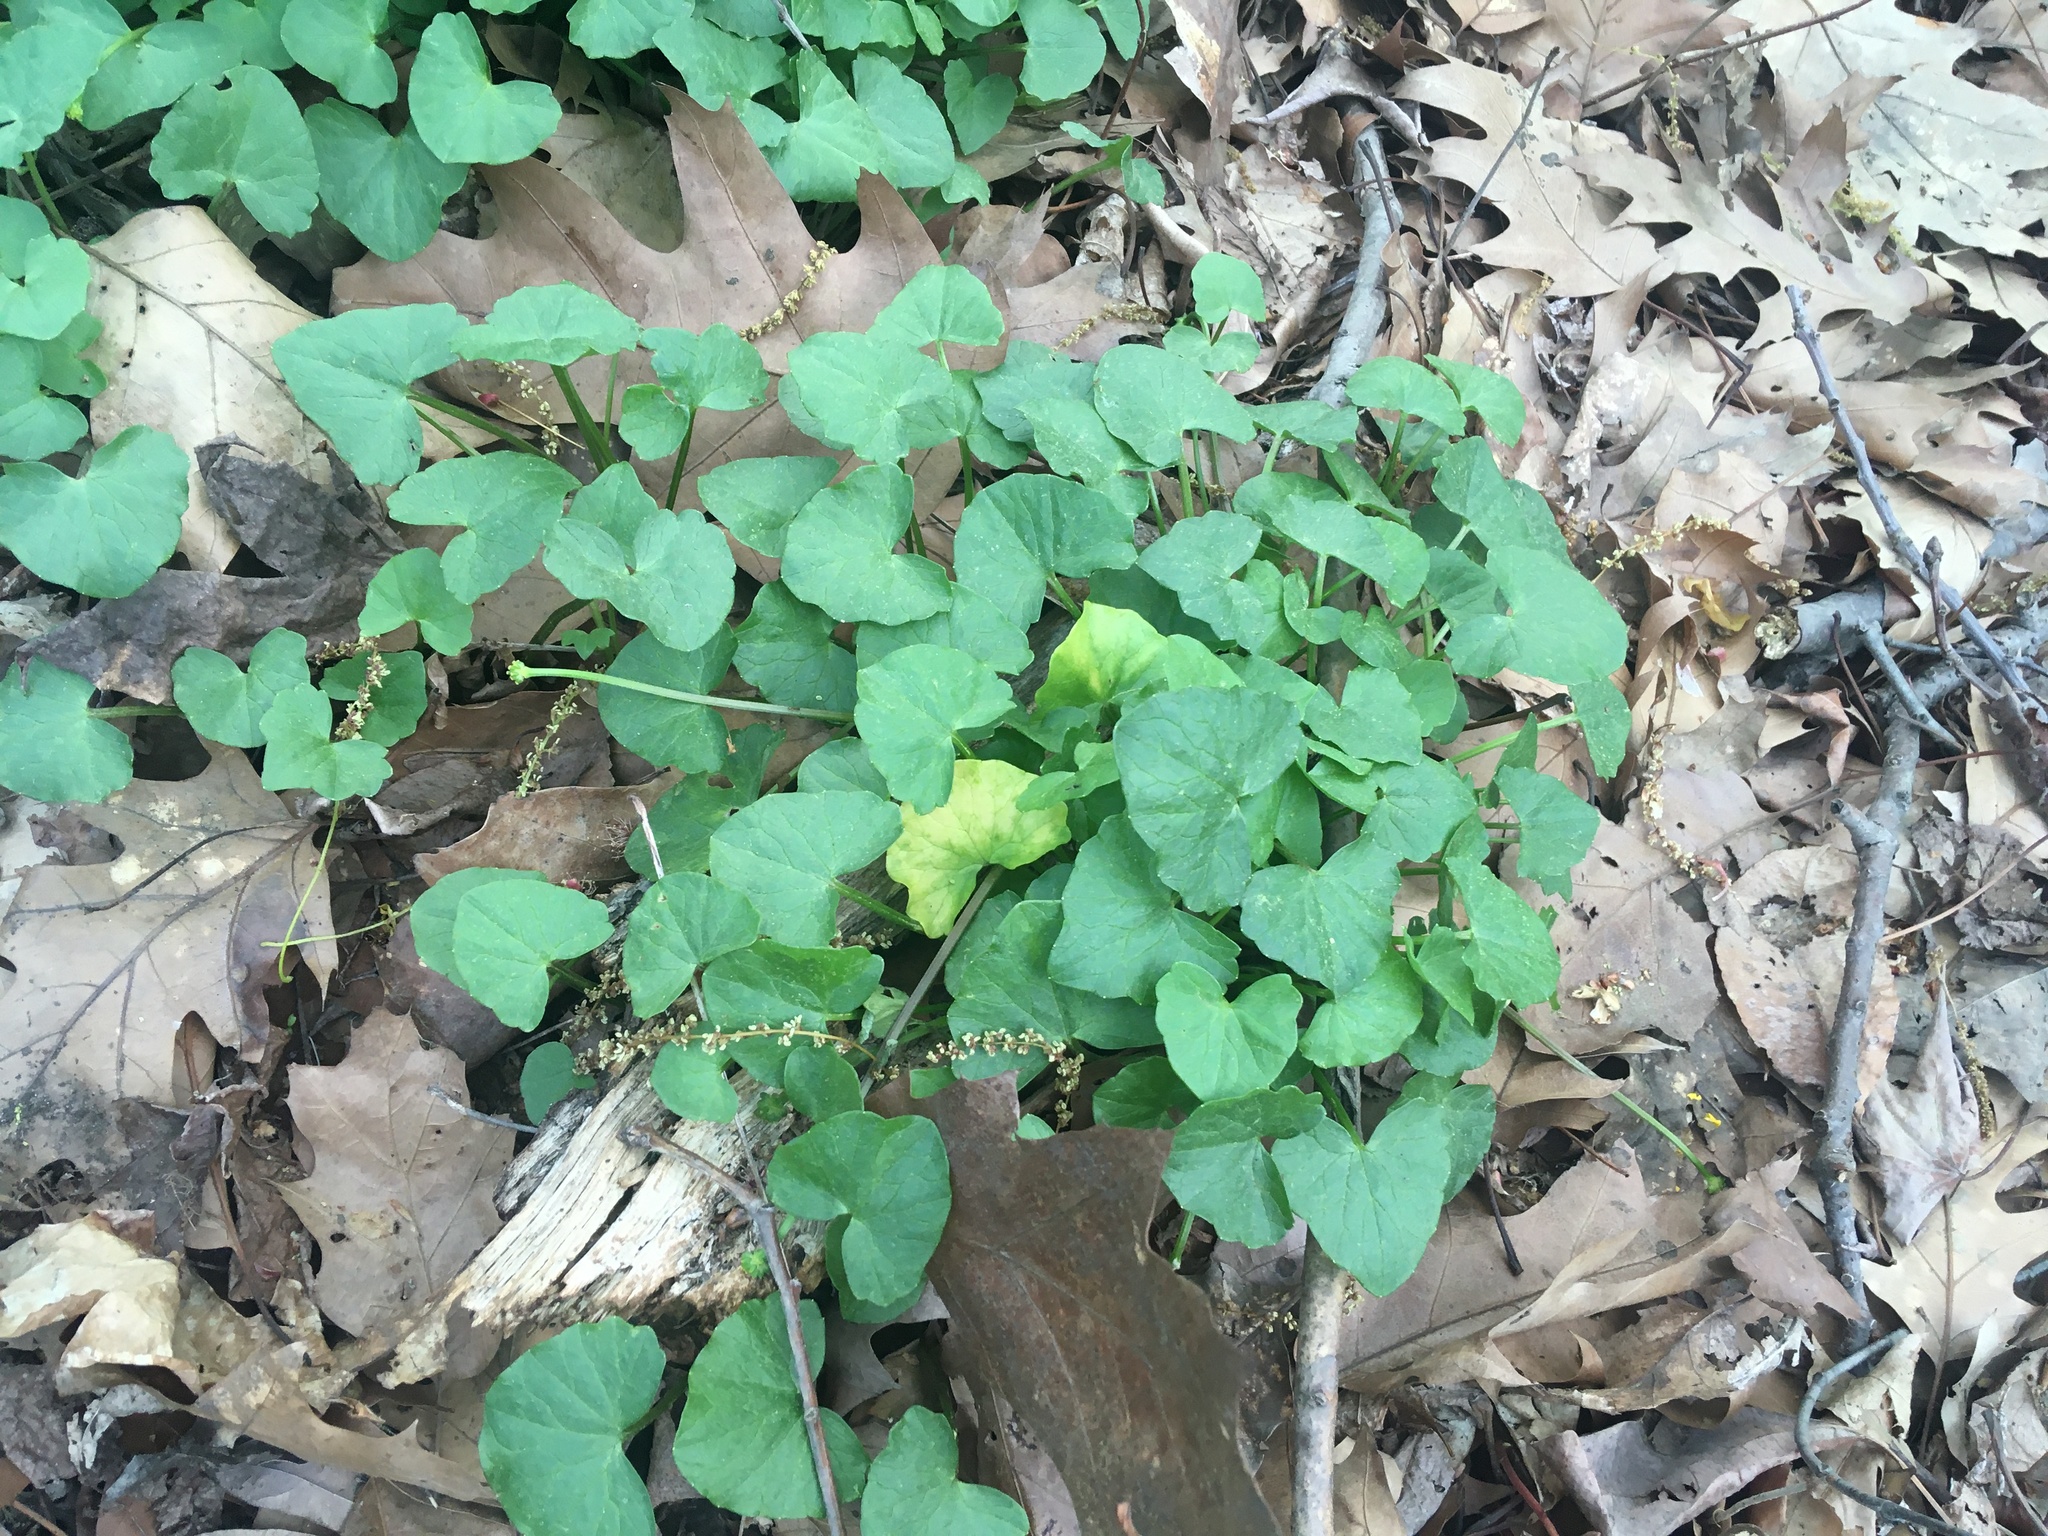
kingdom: Plantae
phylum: Tracheophyta
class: Magnoliopsida
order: Ranunculales
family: Ranunculaceae
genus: Ficaria
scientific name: Ficaria verna
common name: Lesser celandine
